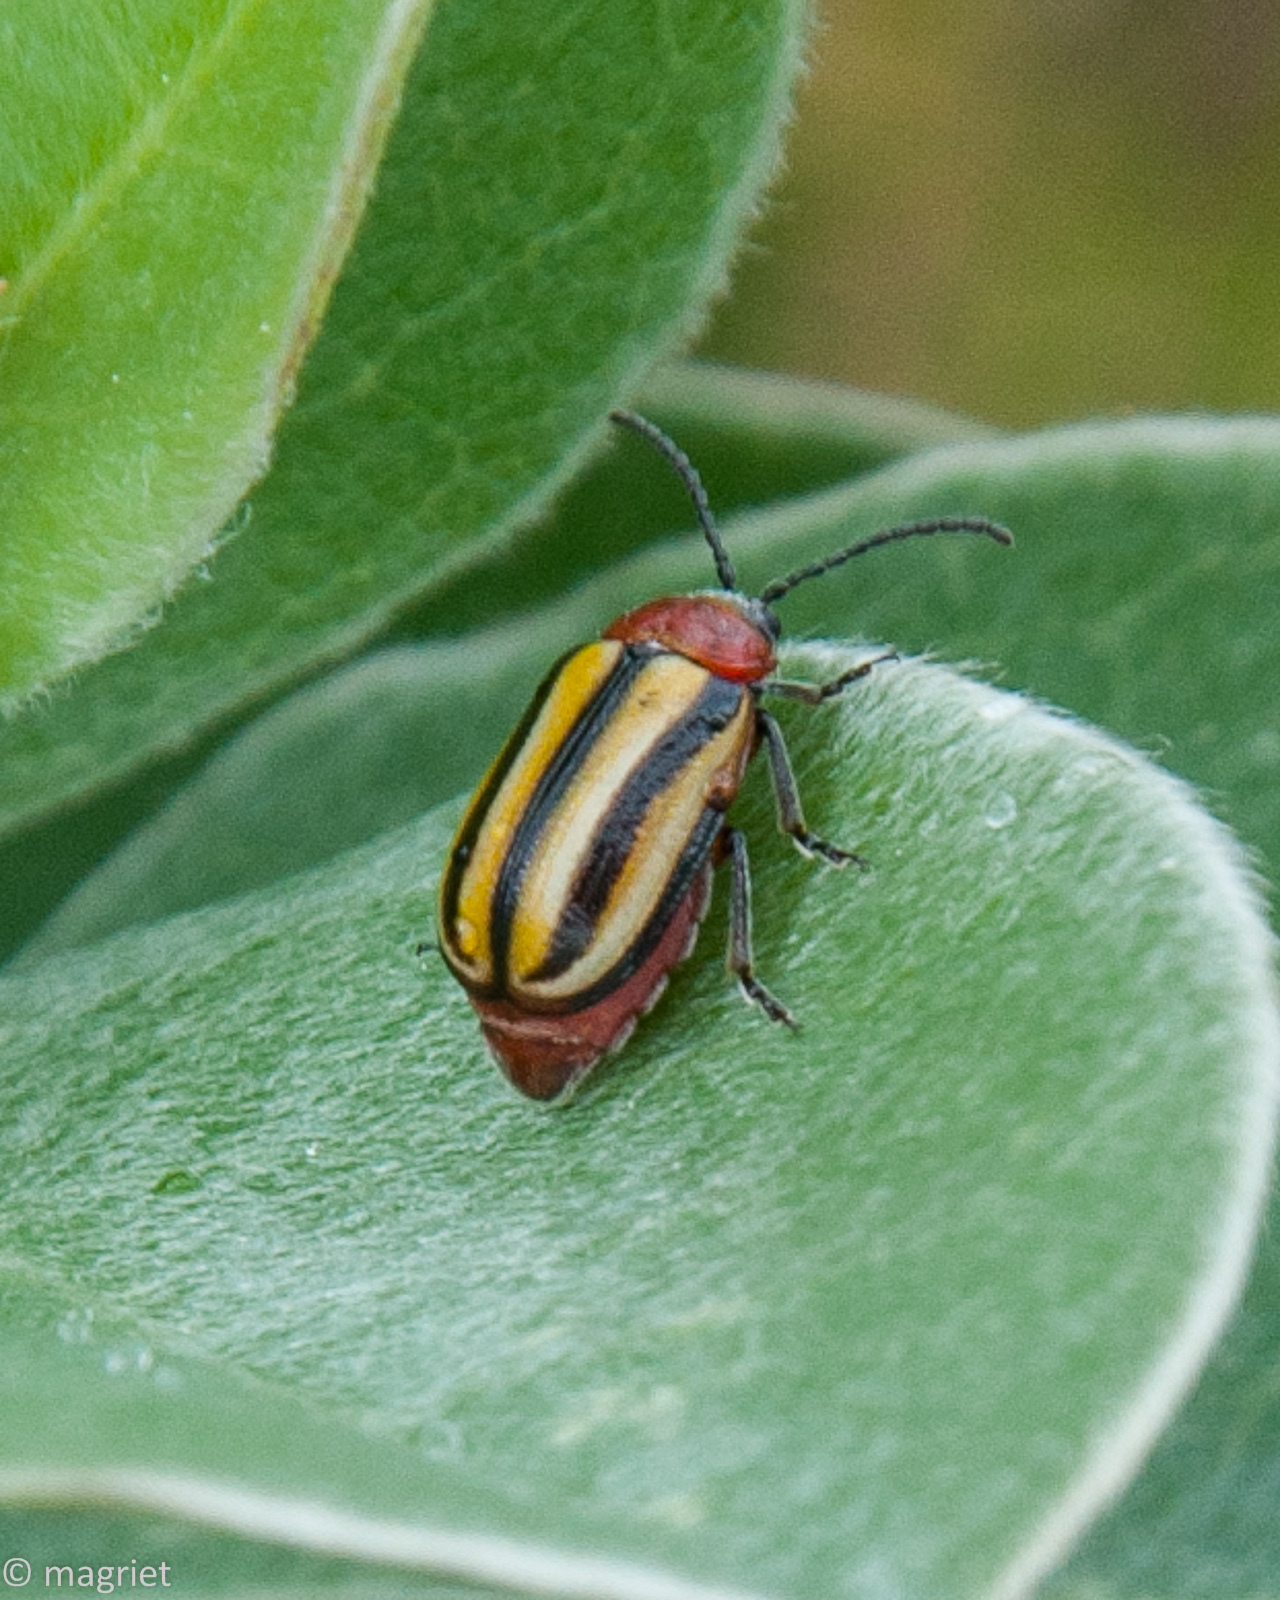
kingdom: Animalia
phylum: Arthropoda
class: Insecta
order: Coleoptera
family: Chrysomelidae
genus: Trichocneorane
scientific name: Trichocneorane
